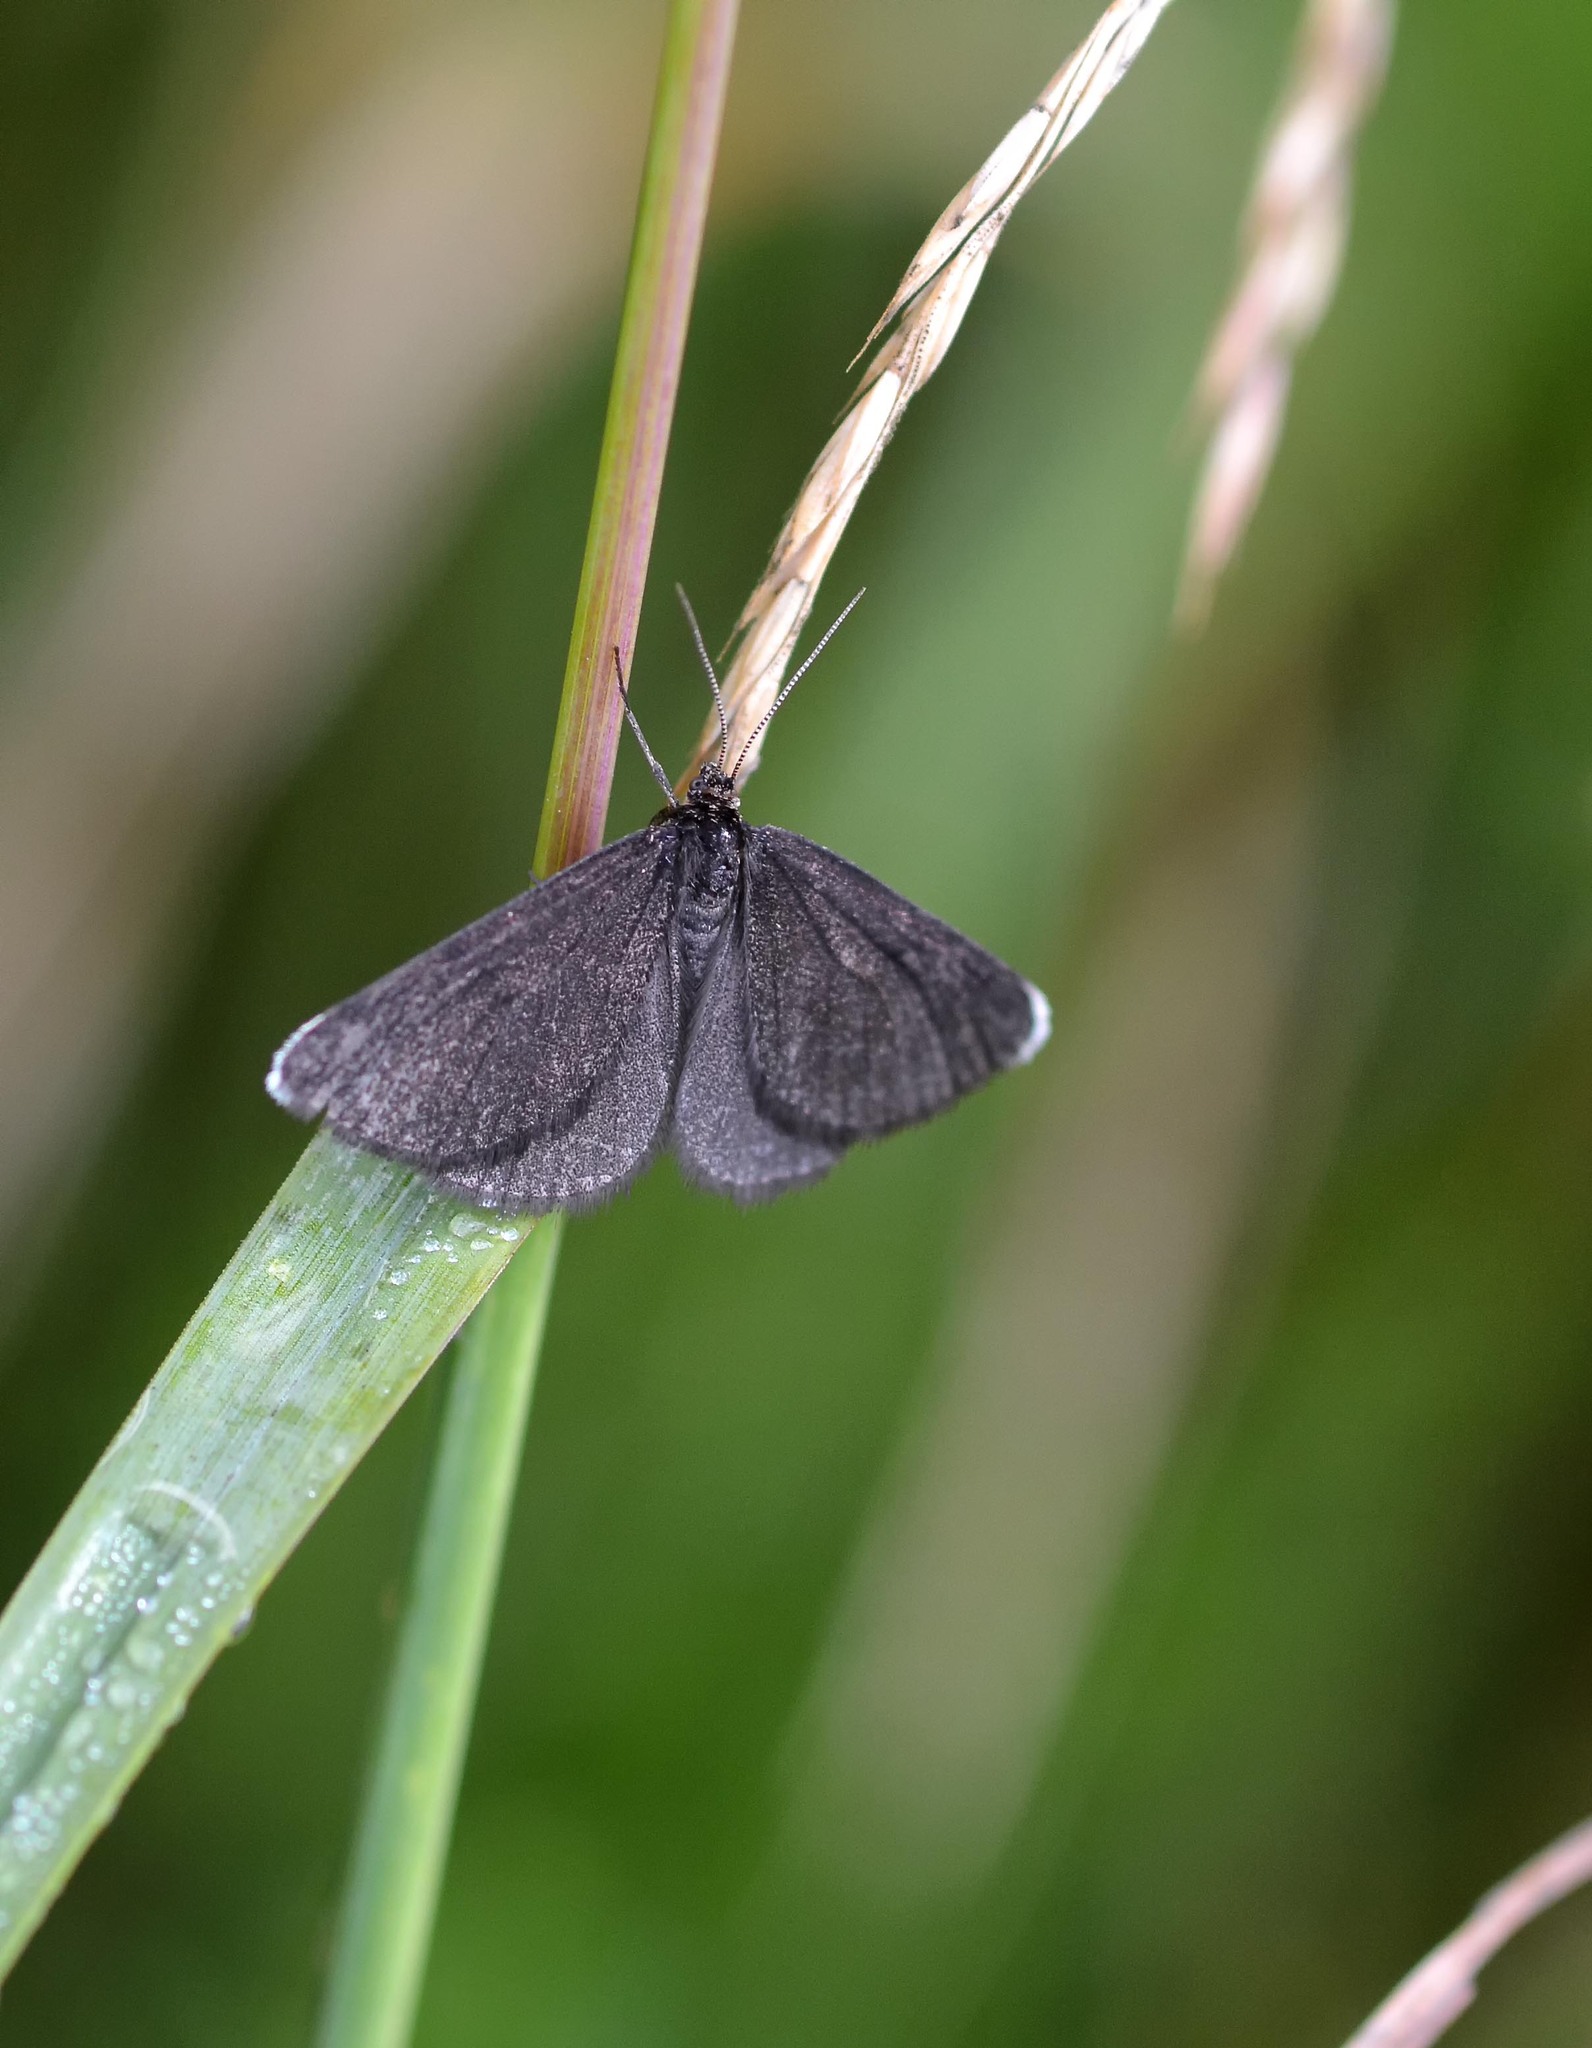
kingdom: Animalia
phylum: Arthropoda
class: Insecta
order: Lepidoptera
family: Geometridae
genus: Odezia
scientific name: Odezia atrata
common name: Chimney sweeper
